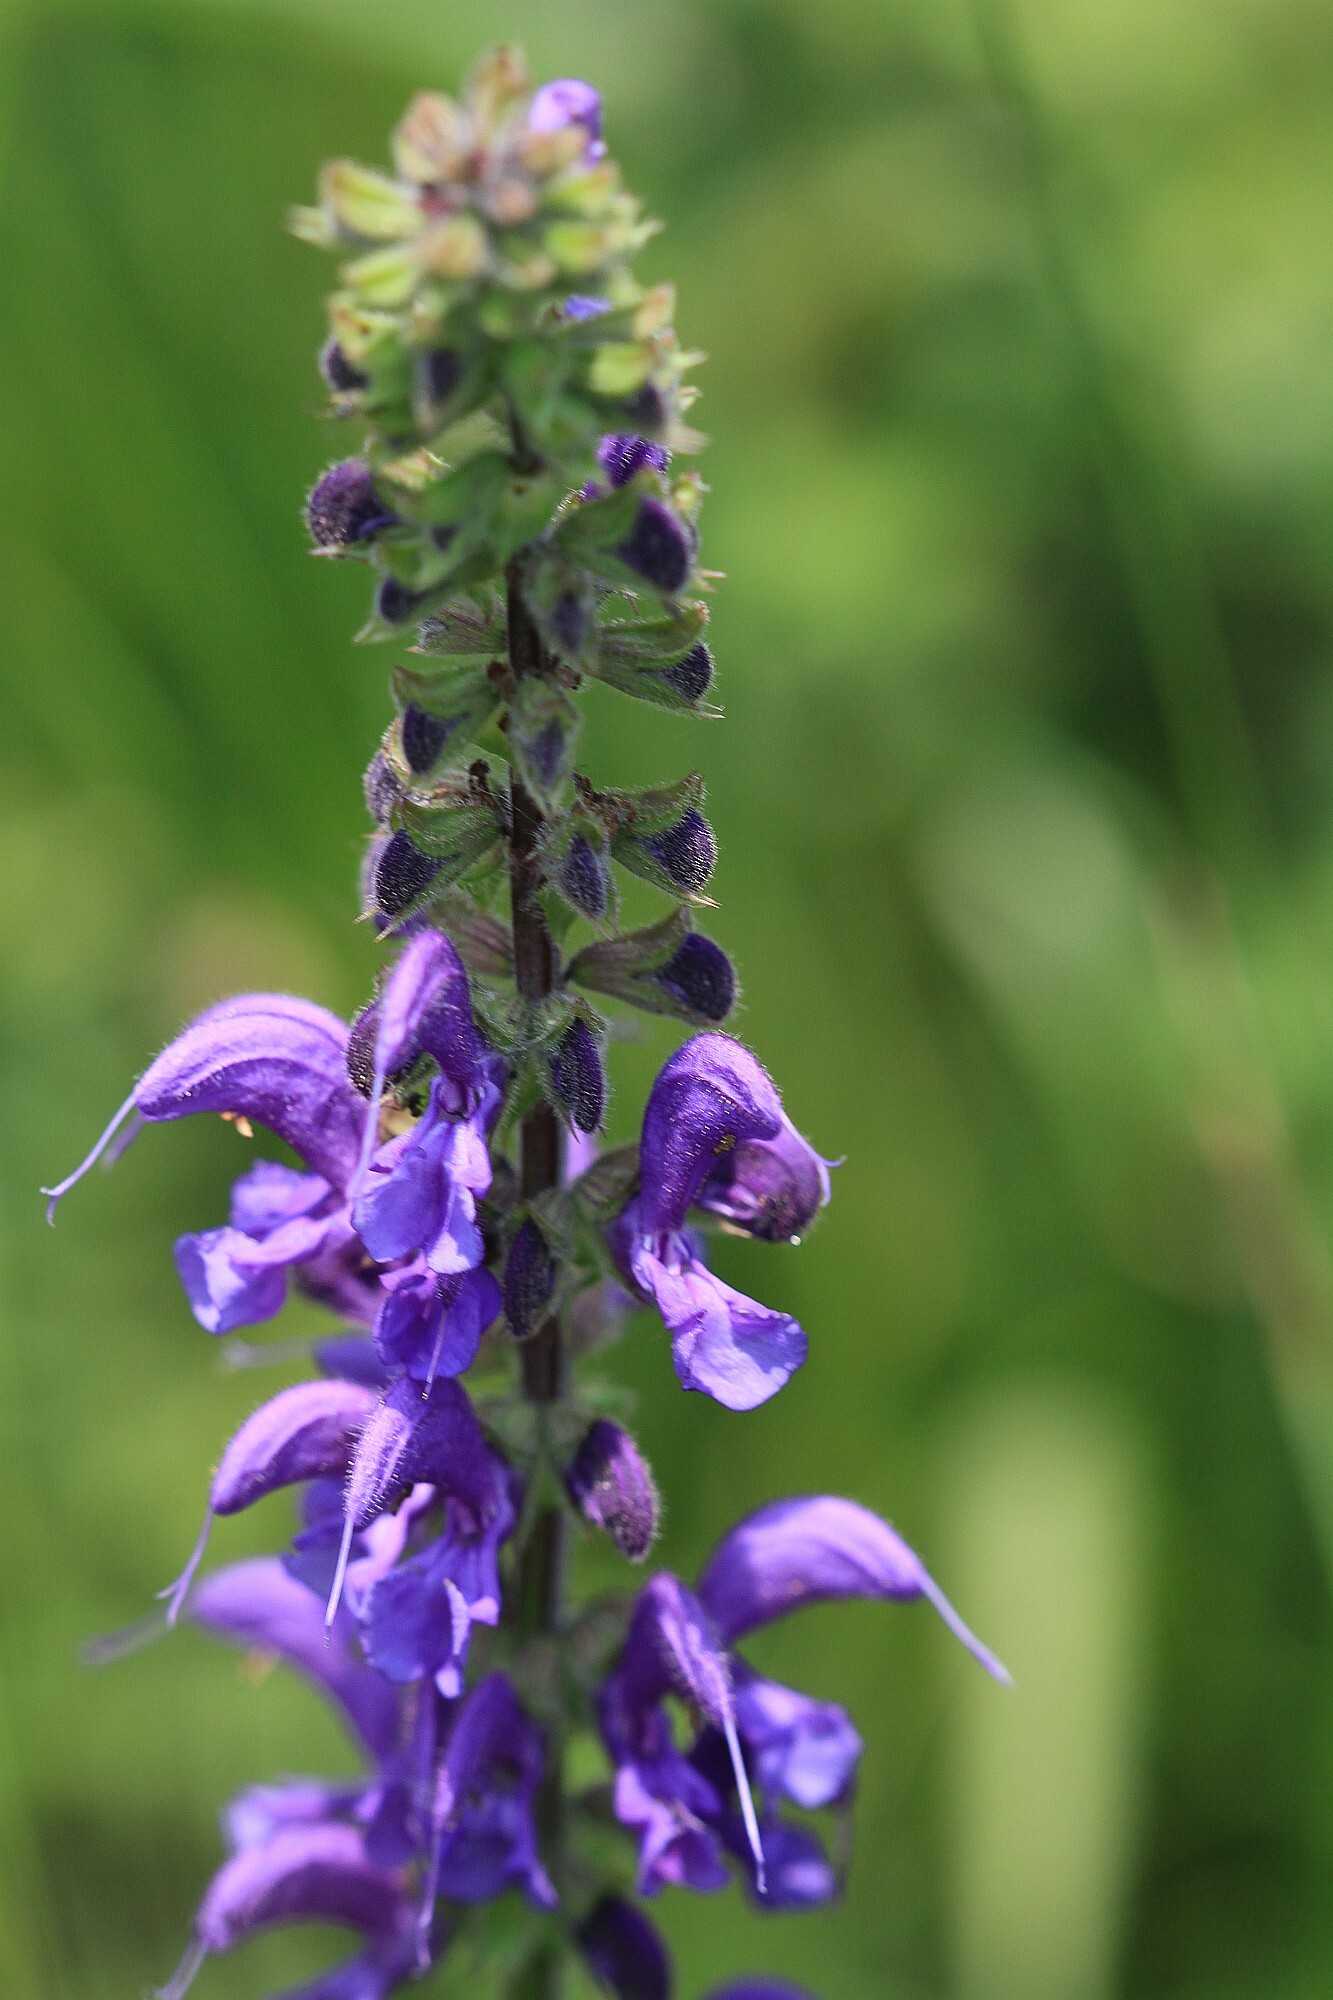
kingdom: Plantae
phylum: Tracheophyta
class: Magnoliopsida
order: Lamiales
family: Lamiaceae
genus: Salvia
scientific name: Salvia pratensis
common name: Meadow sage
